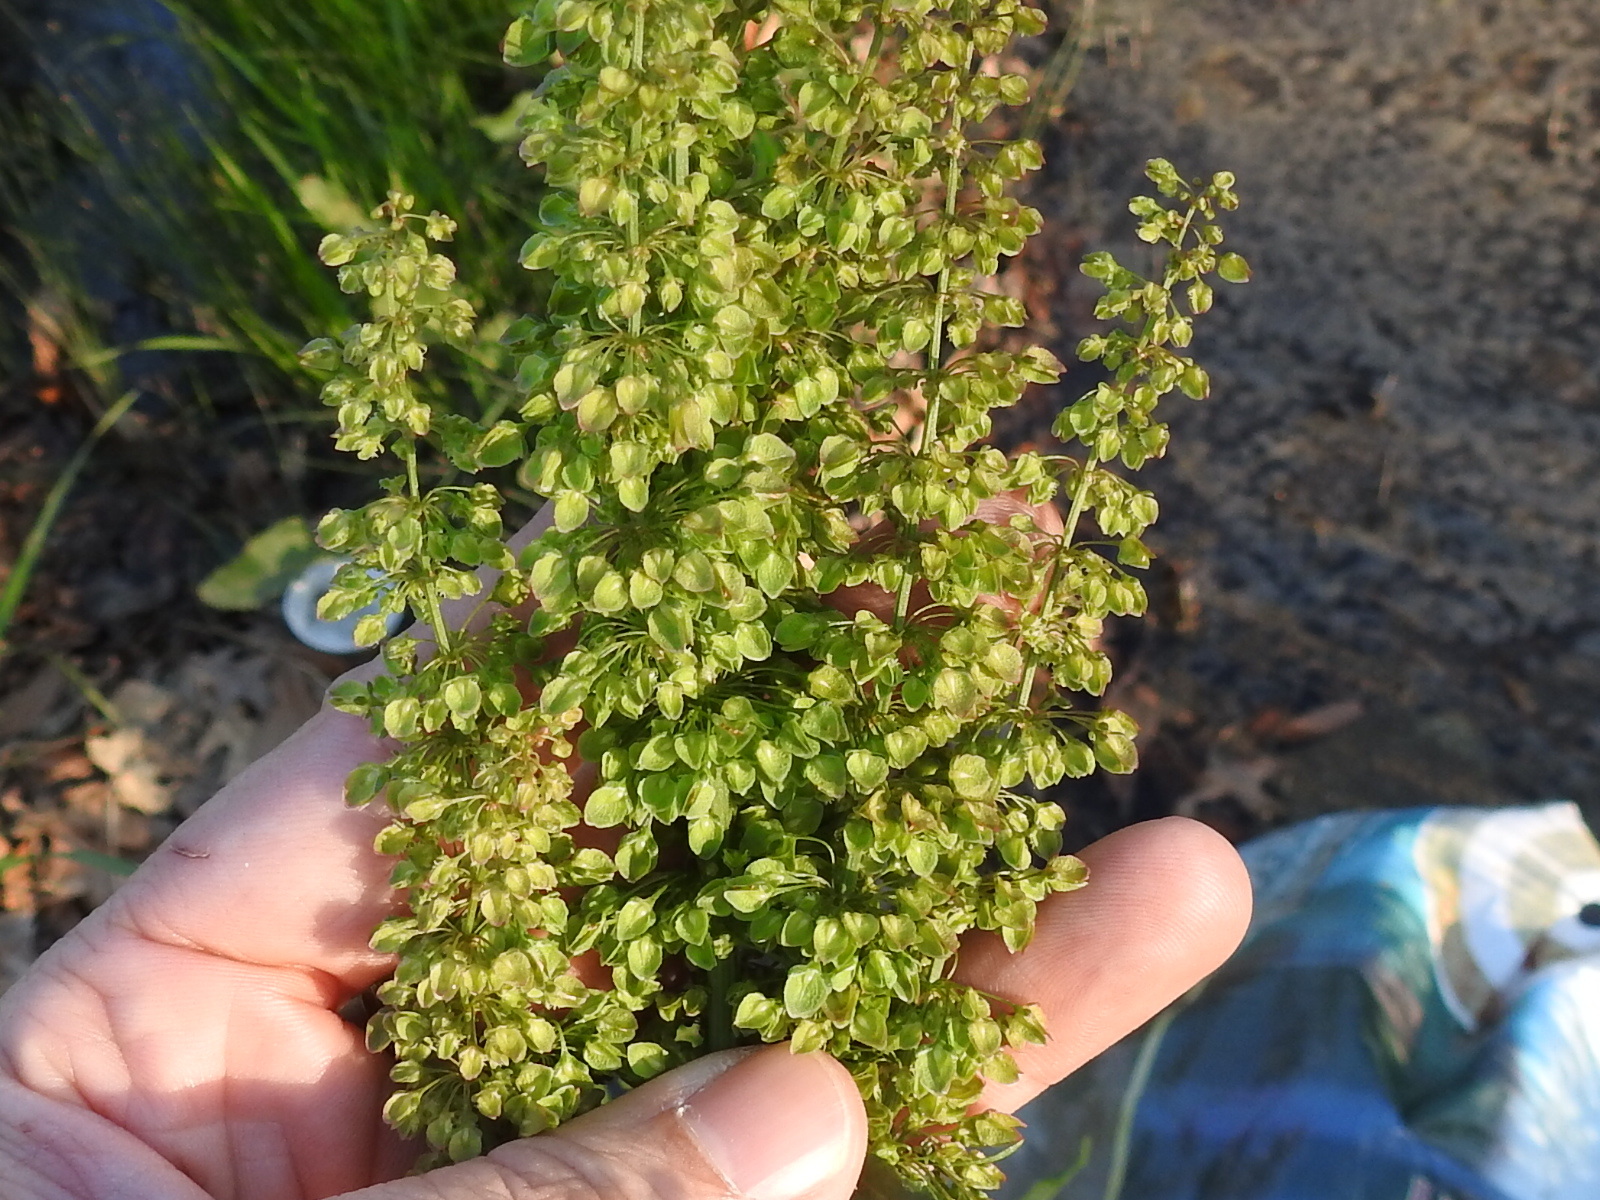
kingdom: Plantae
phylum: Tracheophyta
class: Magnoliopsida
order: Caryophyllales
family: Polygonaceae
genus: Rumex
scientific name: Rumex crispus
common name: Curled dock
